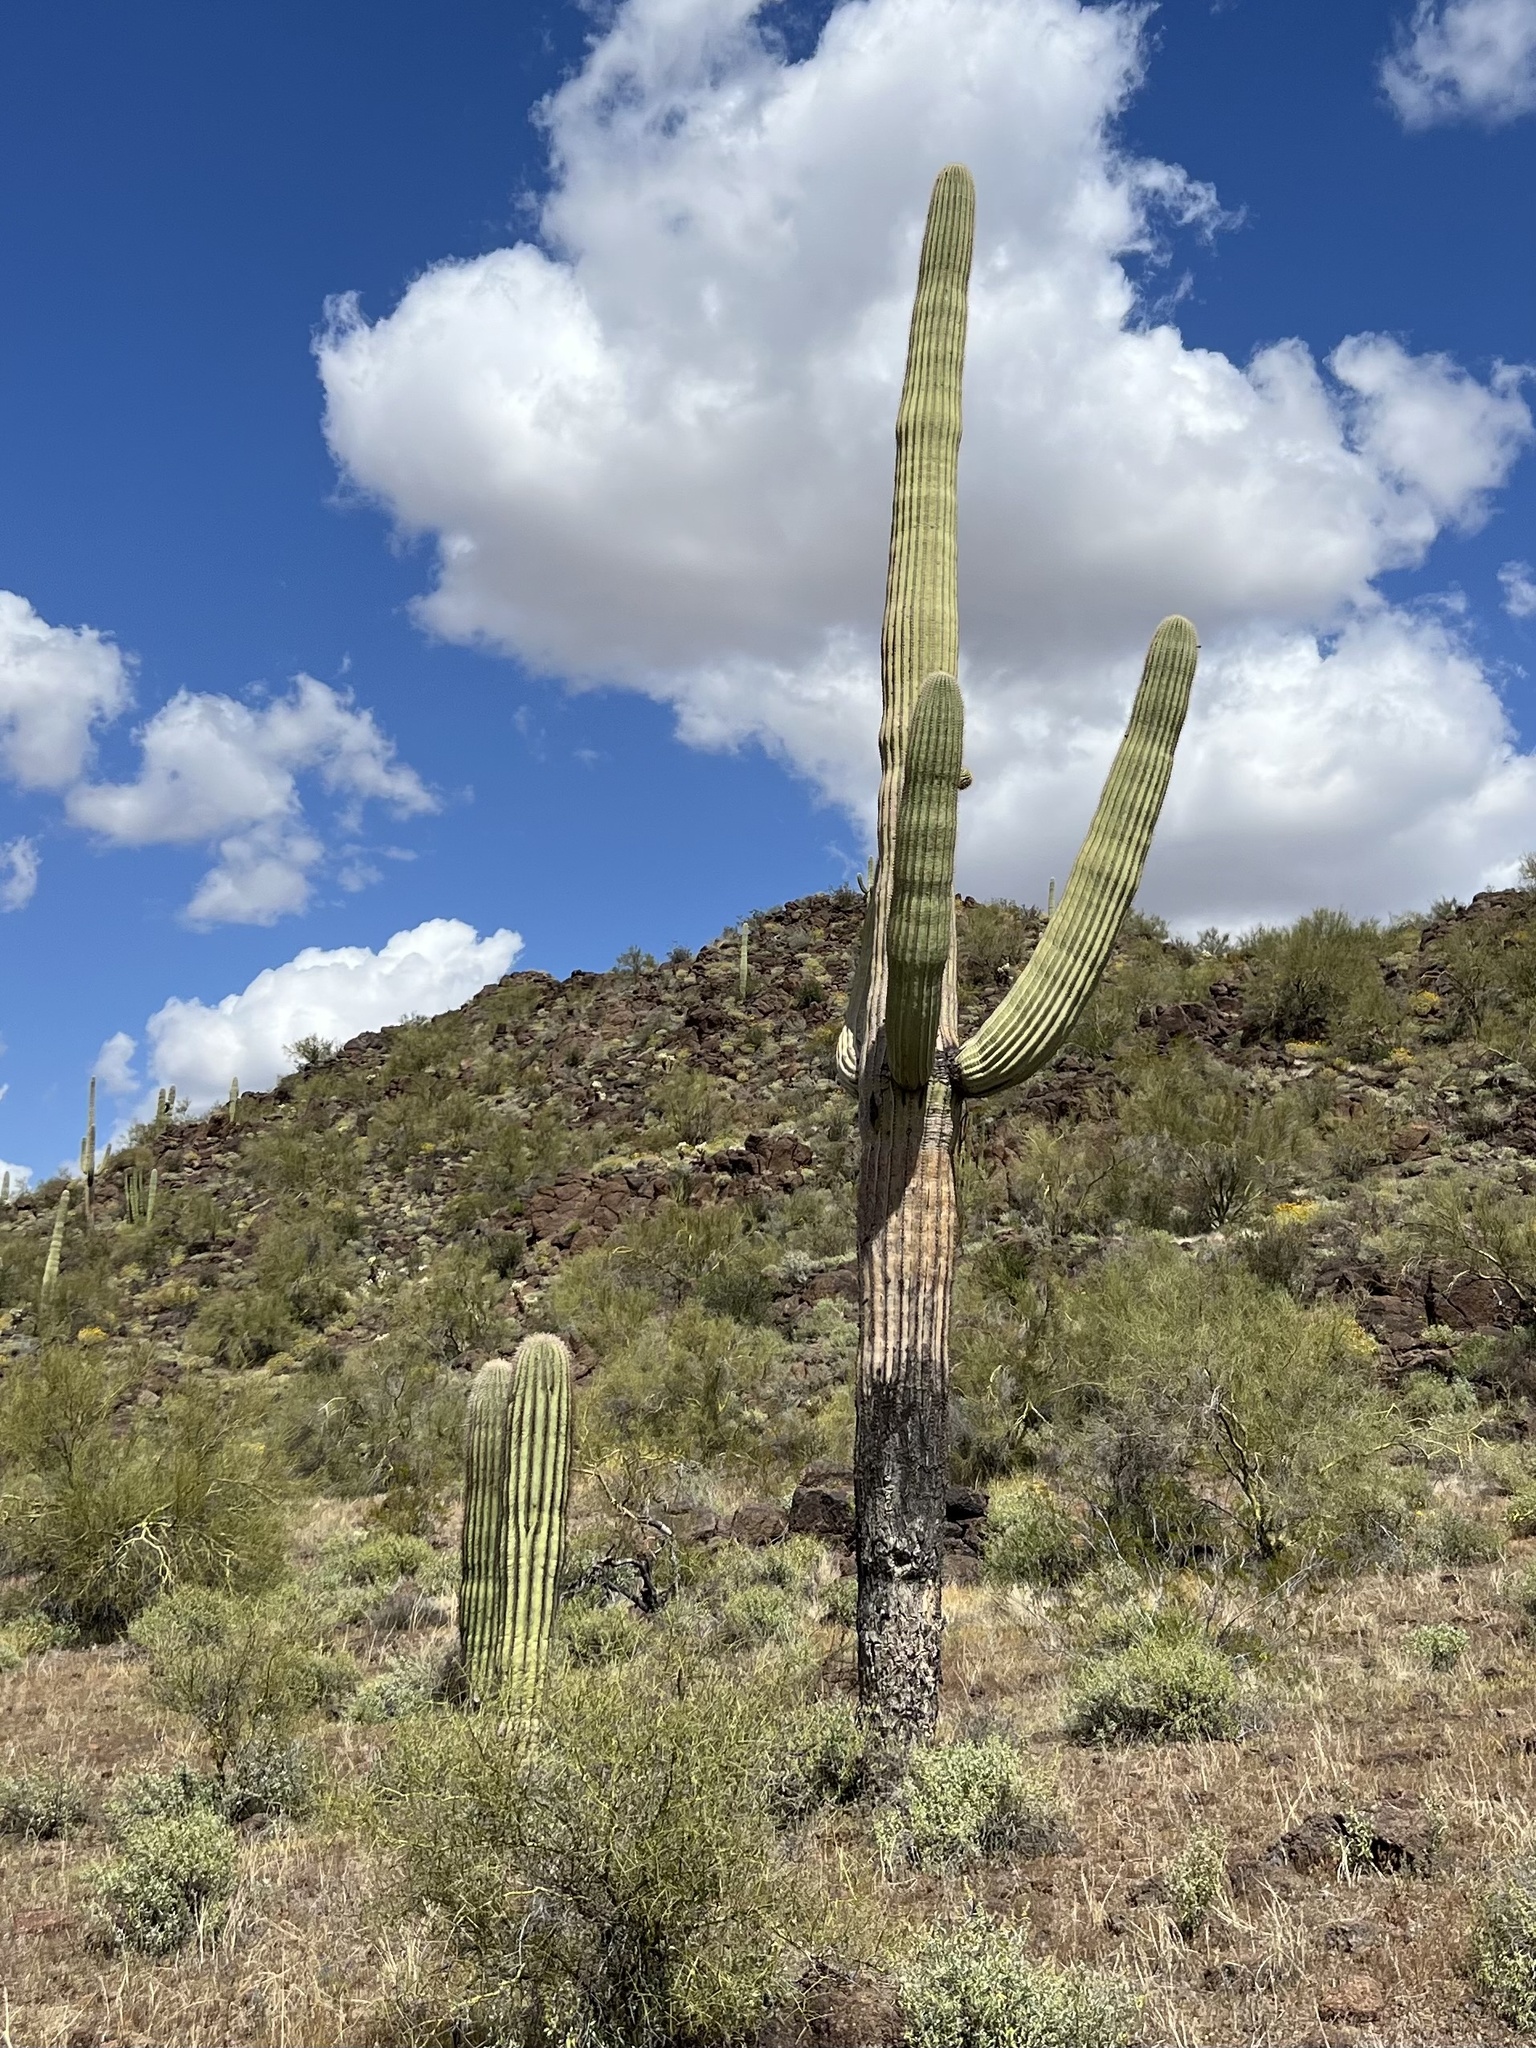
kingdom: Plantae
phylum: Tracheophyta
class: Magnoliopsida
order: Caryophyllales
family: Cactaceae
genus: Carnegiea
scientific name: Carnegiea gigantea
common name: Saguaro
